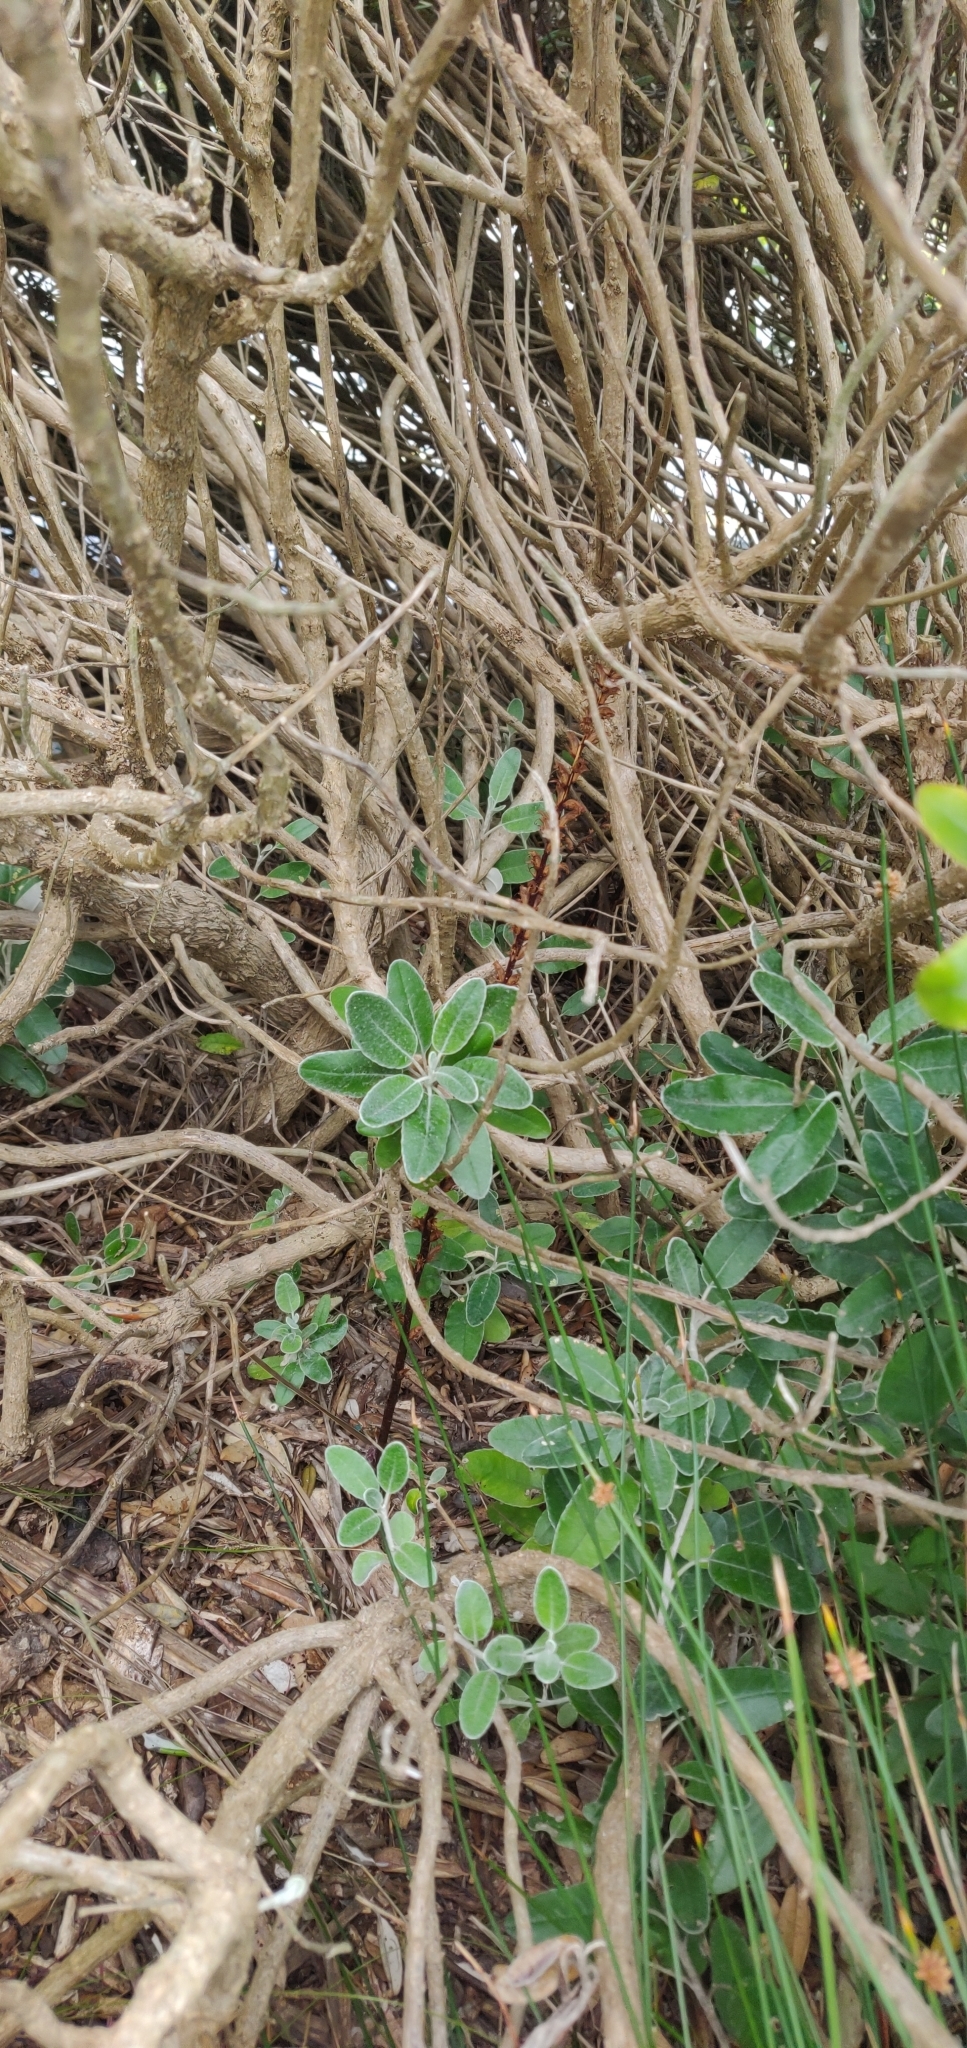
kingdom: Plantae
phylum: Tracheophyta
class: Magnoliopsida
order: Lamiales
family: Orobanchaceae
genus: Orobanche
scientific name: Orobanche minor
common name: Common broomrape
